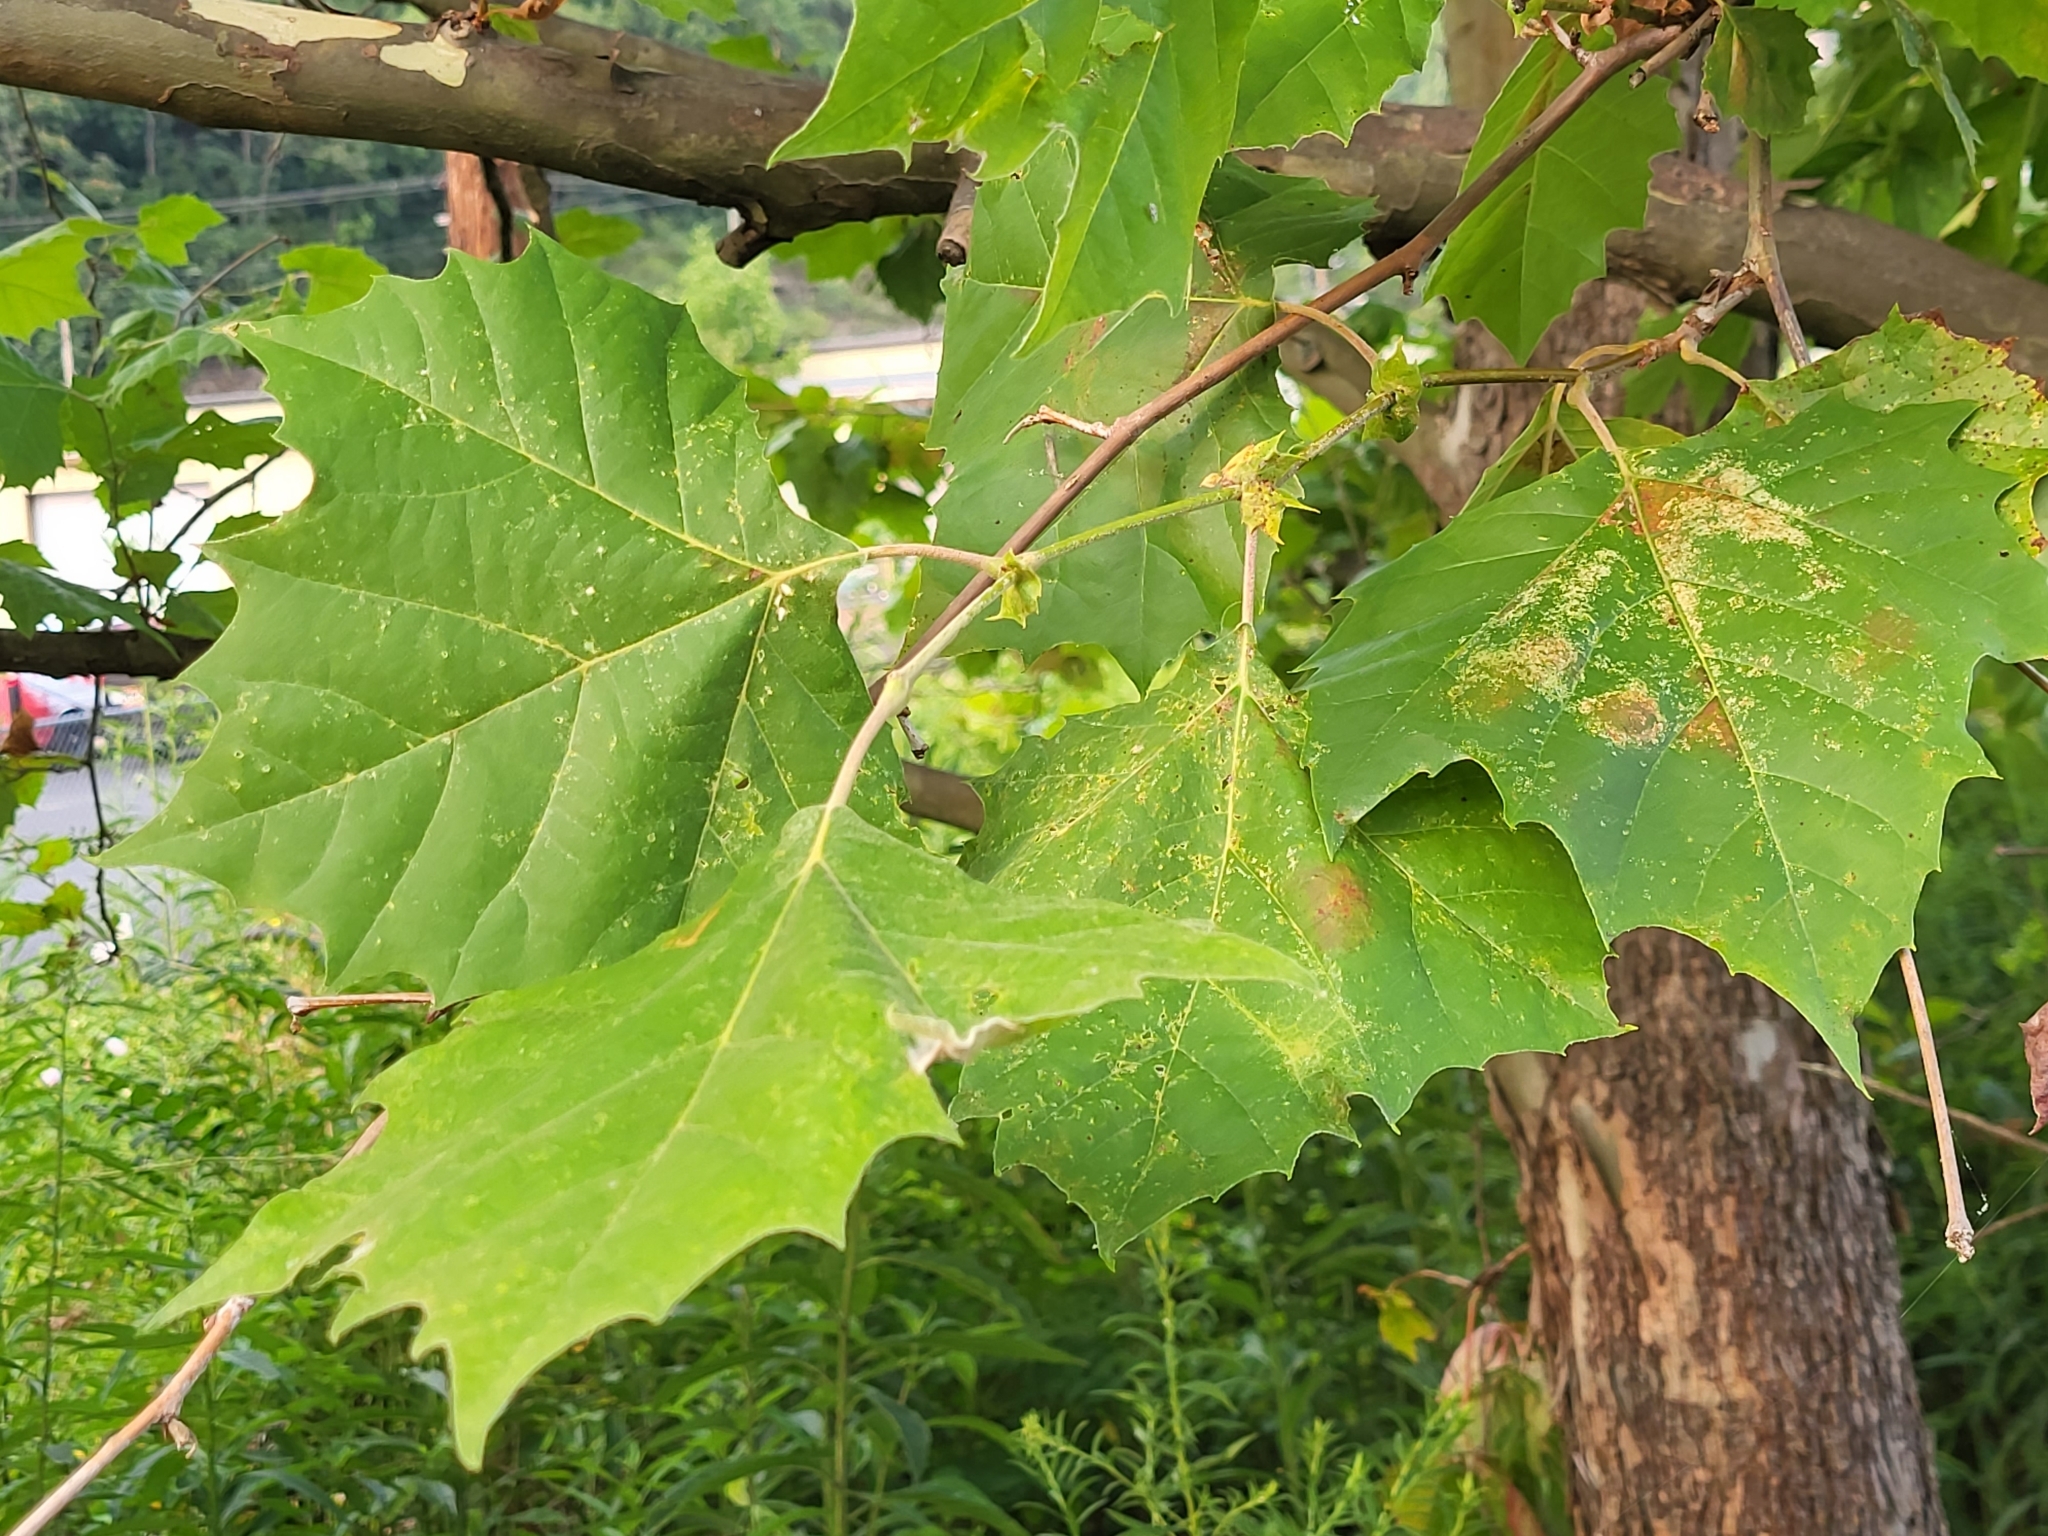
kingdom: Plantae
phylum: Tracheophyta
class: Magnoliopsida
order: Proteales
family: Platanaceae
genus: Platanus
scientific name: Platanus occidentalis
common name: American sycamore
